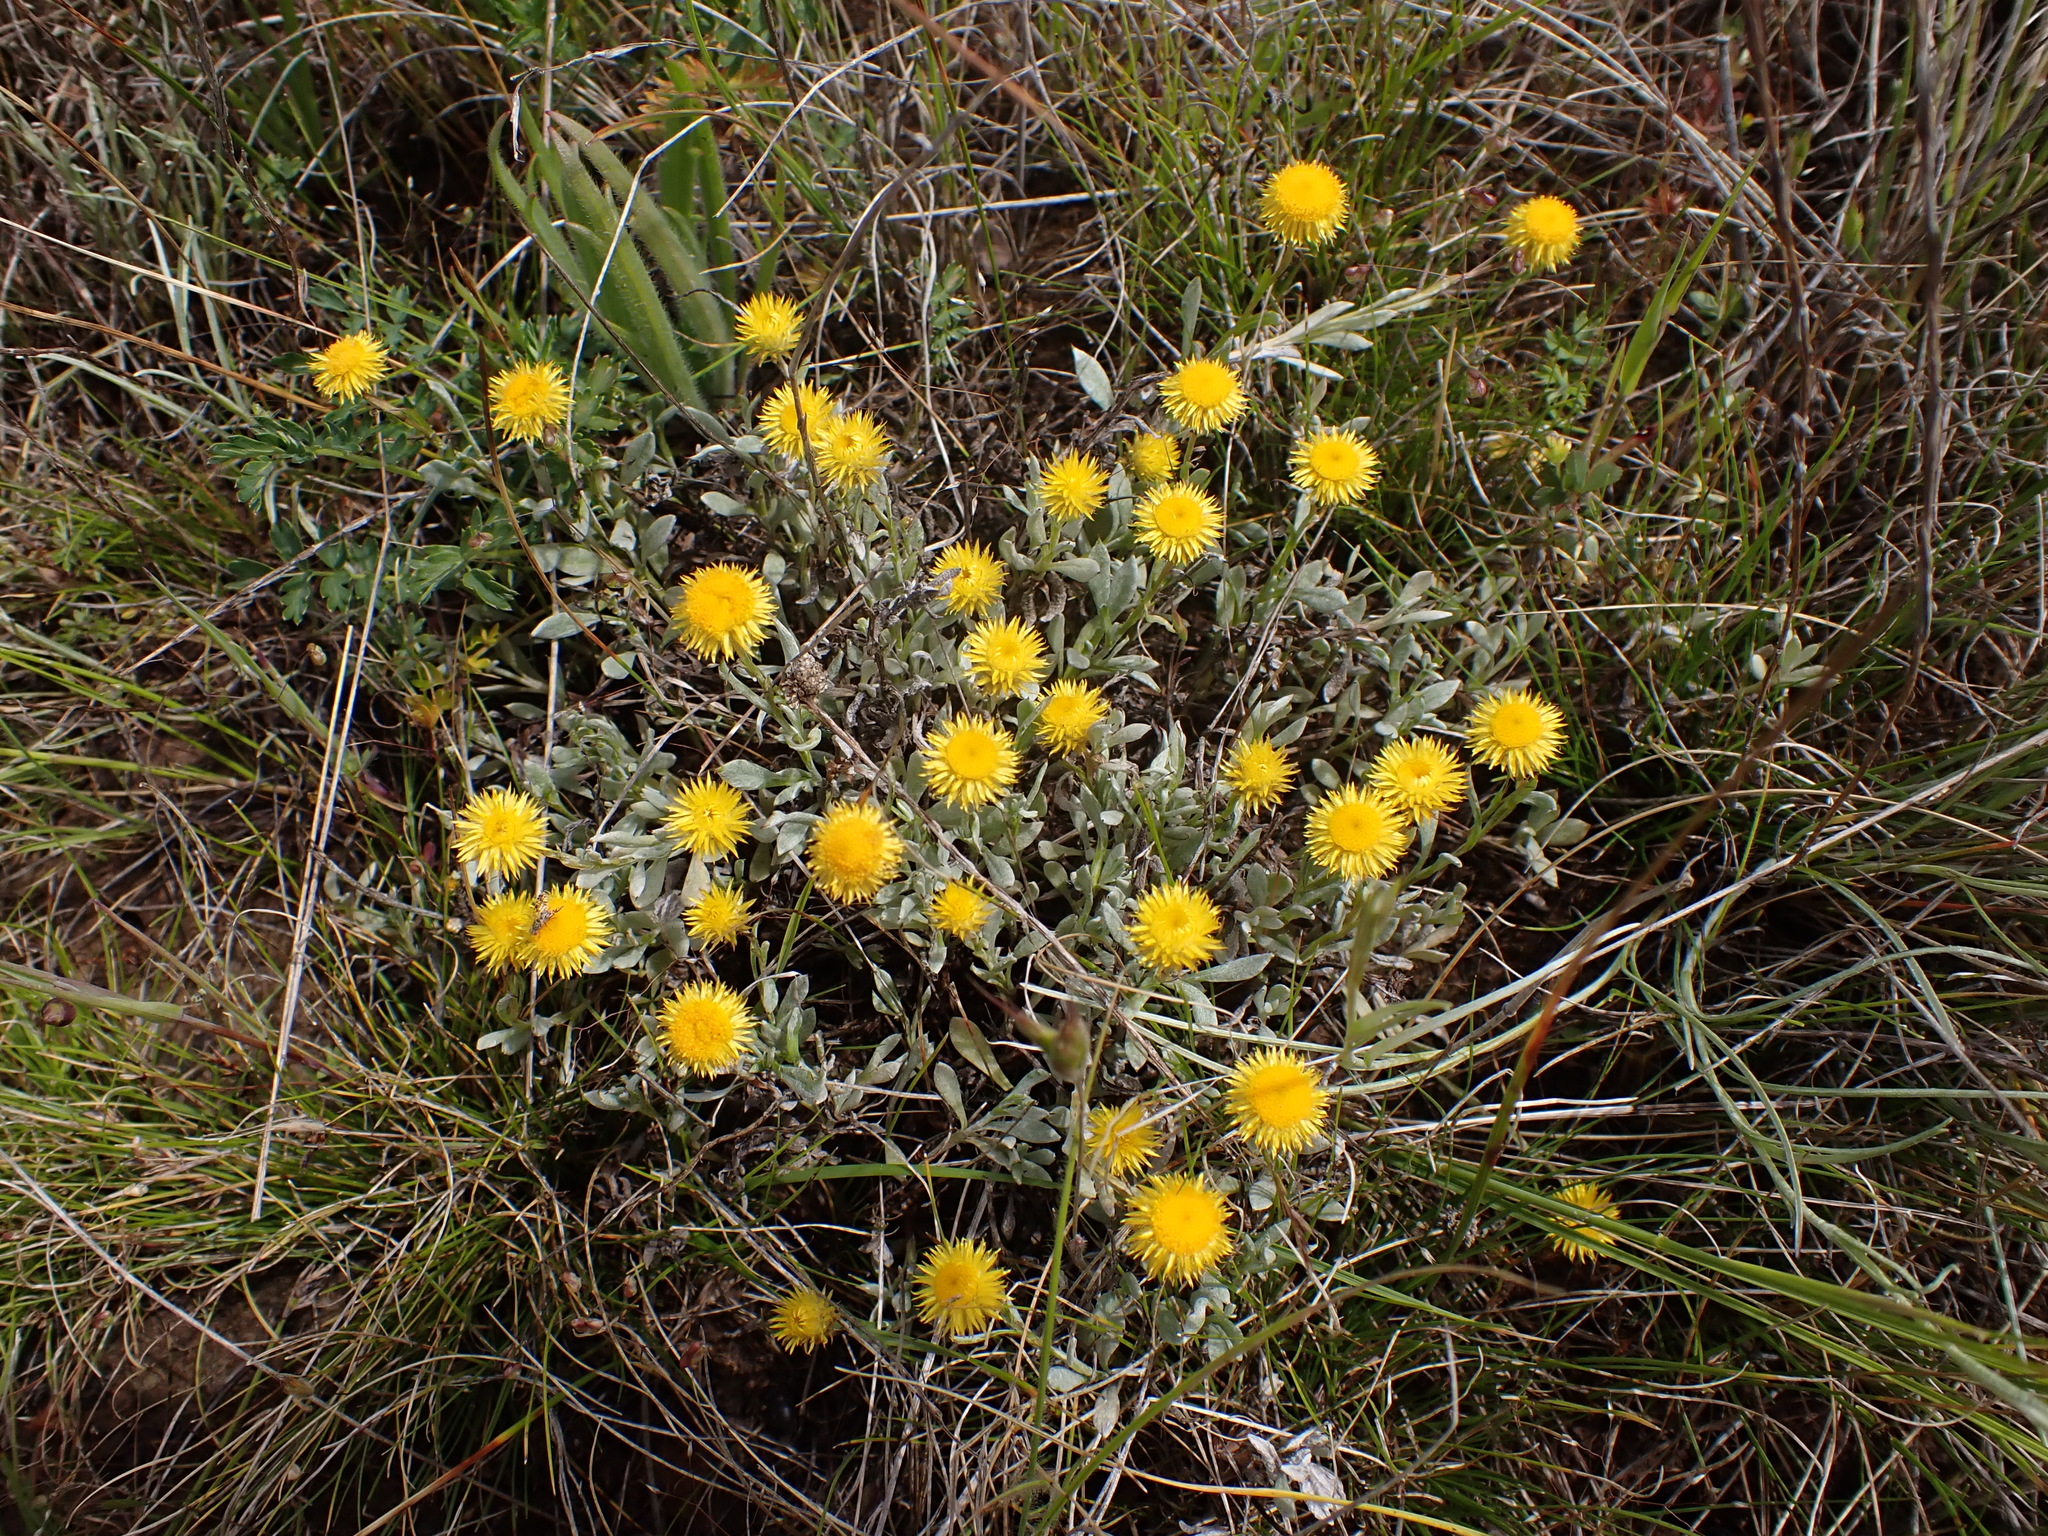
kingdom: Plantae
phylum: Tracheophyta
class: Magnoliopsida
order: Asterales
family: Asteraceae
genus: Chrysocephalum
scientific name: Chrysocephalum apiculatum
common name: Common everlasting
